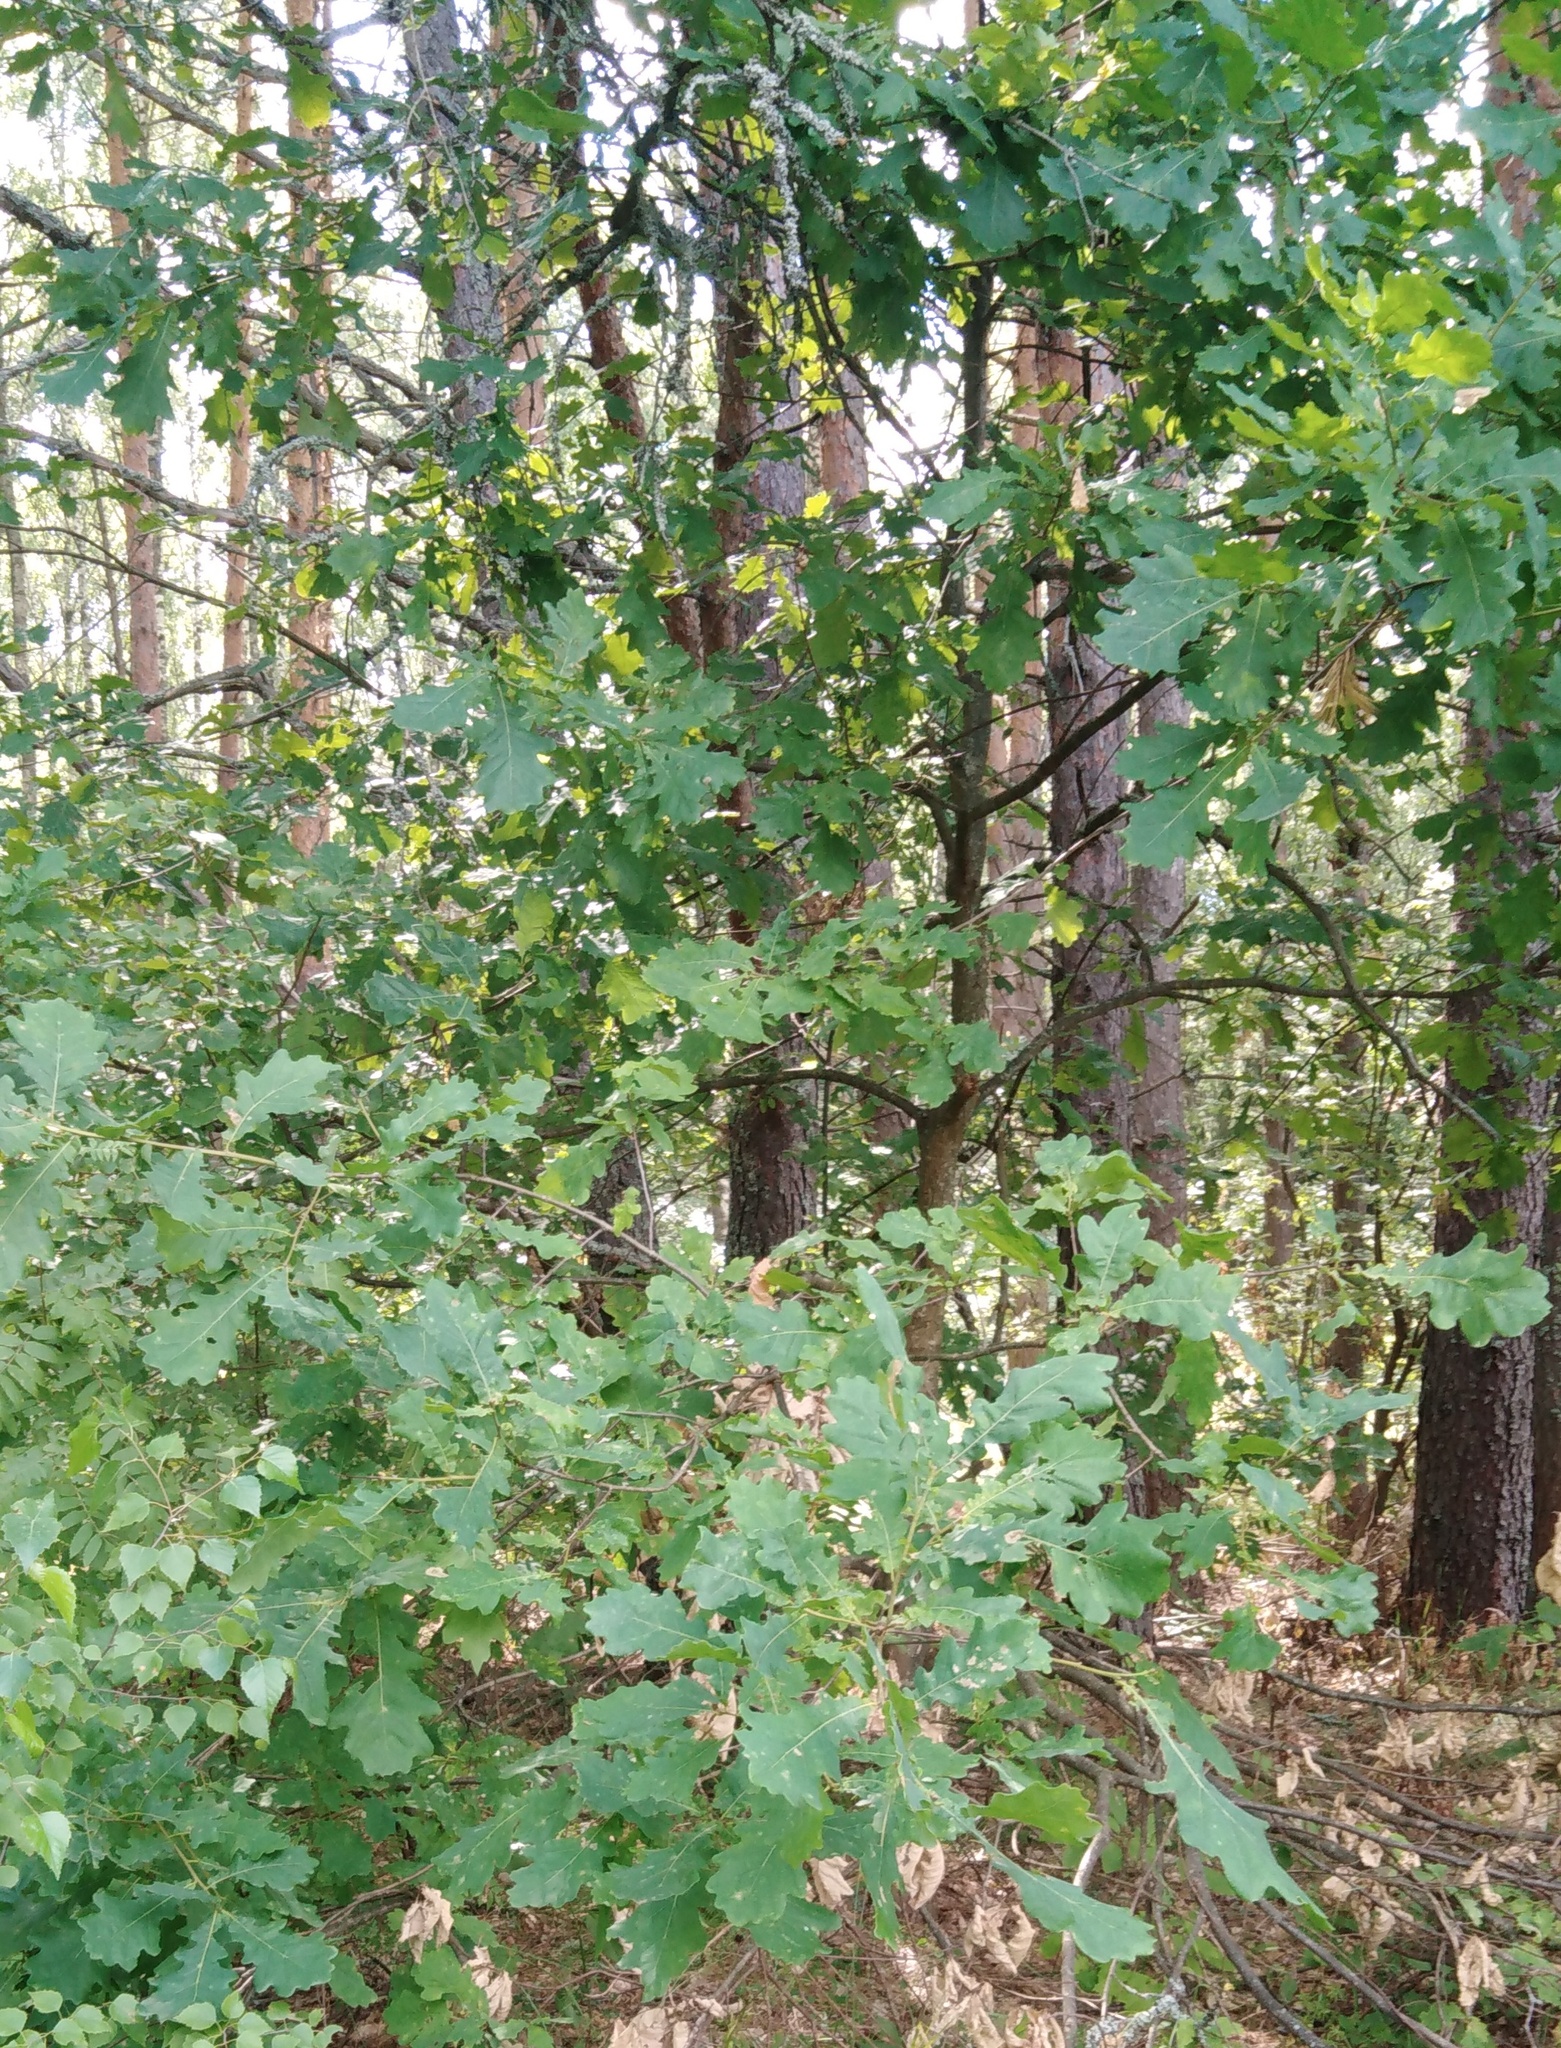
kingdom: Plantae
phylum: Tracheophyta
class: Magnoliopsida
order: Fagales
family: Fagaceae
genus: Quercus
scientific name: Quercus robur
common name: Pedunculate oak
